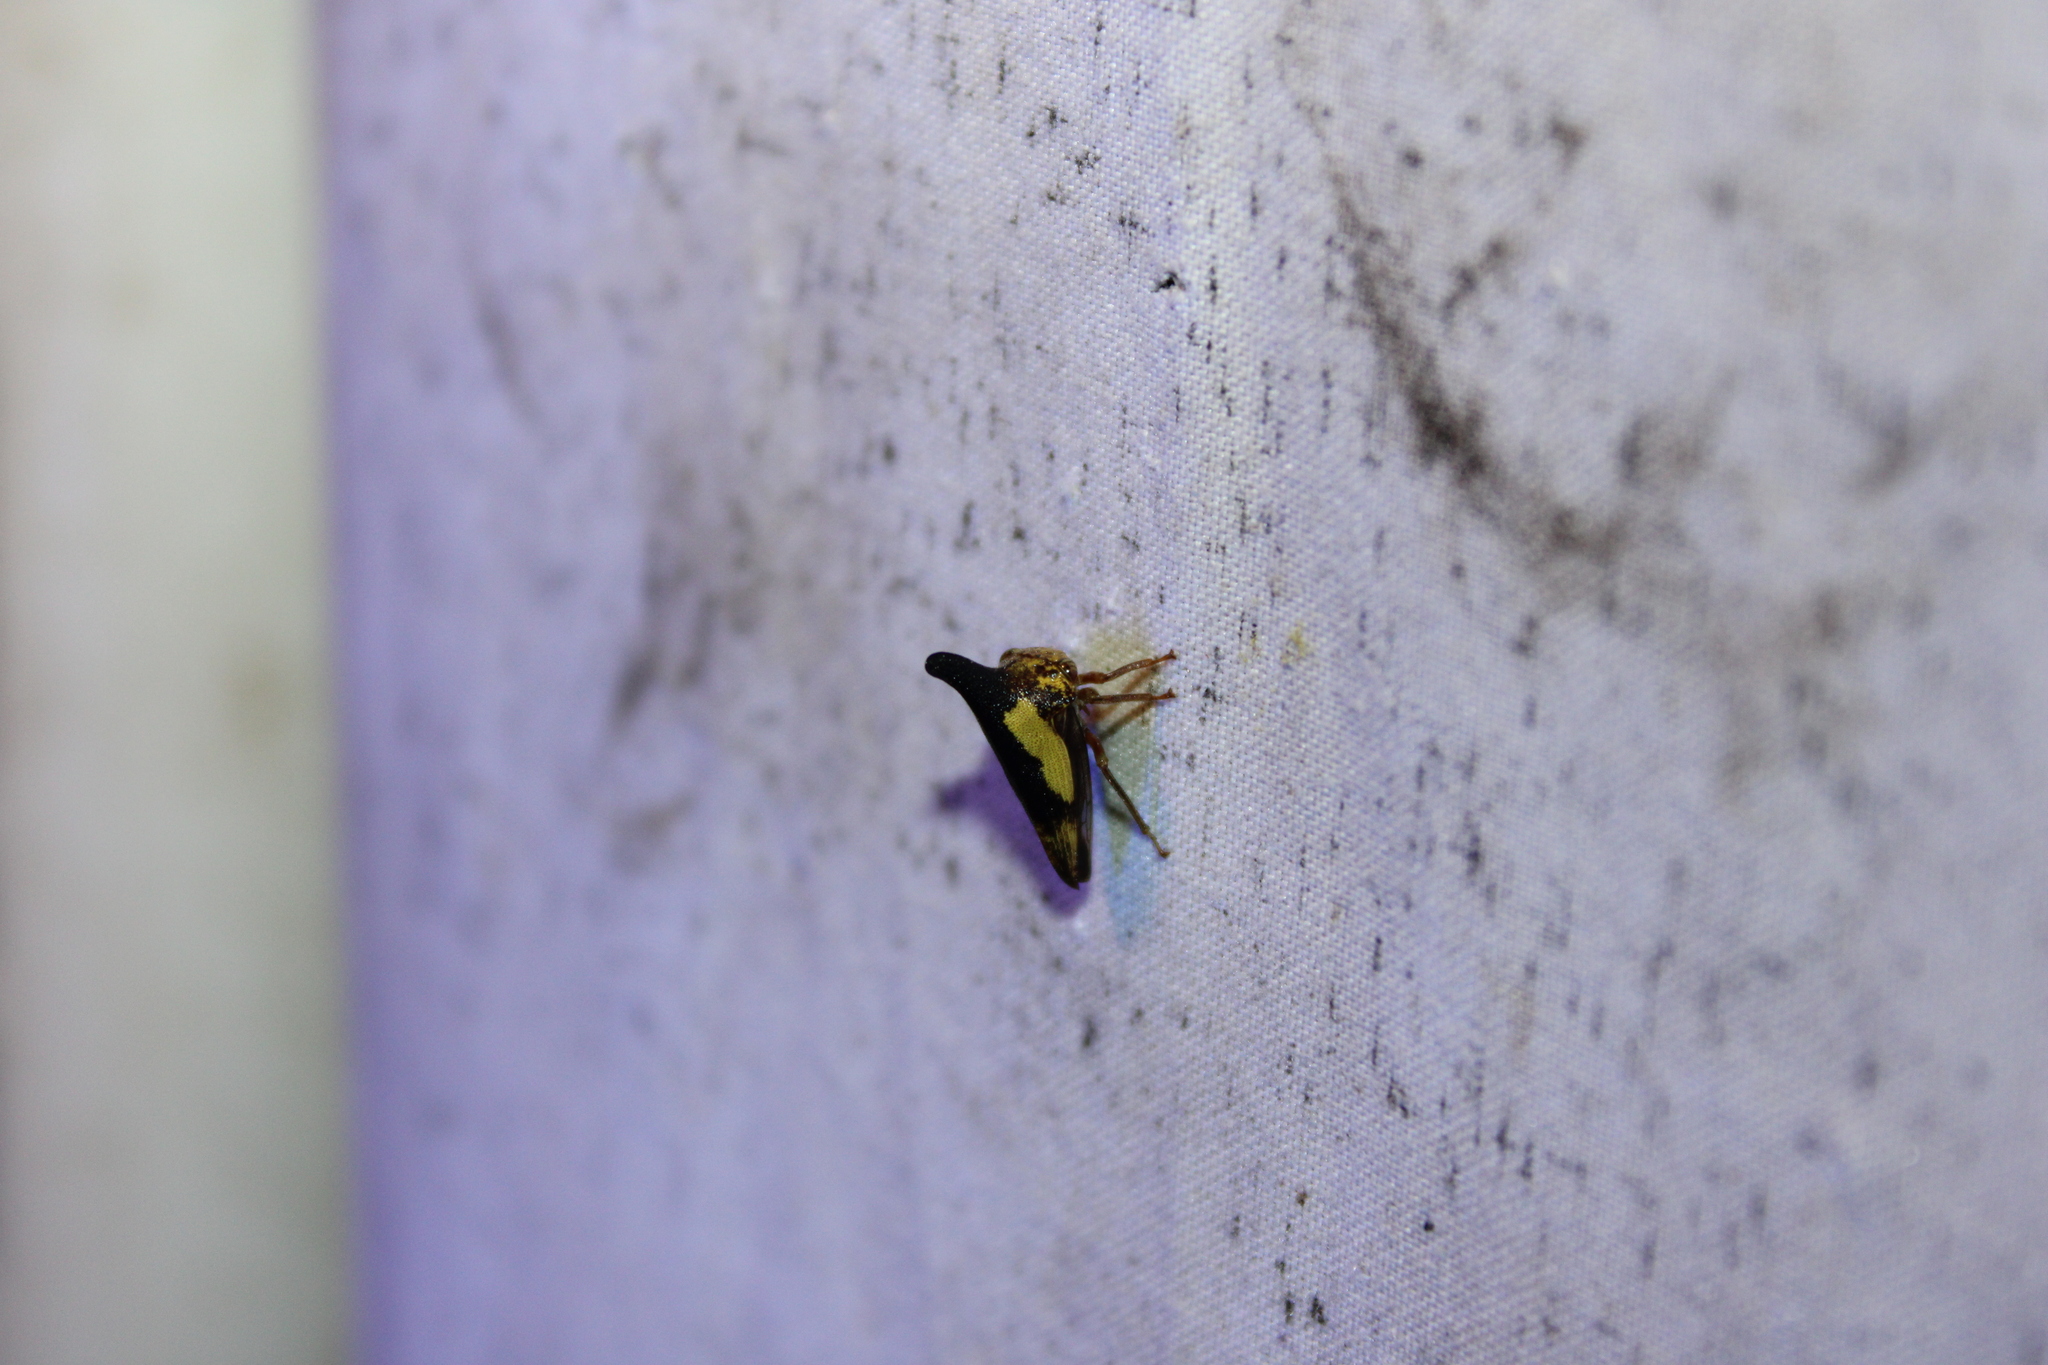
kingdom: Animalia
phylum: Arthropoda
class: Insecta
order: Hemiptera
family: Membracidae
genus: Thelia
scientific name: Thelia bimaculata
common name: Locust treehopper
